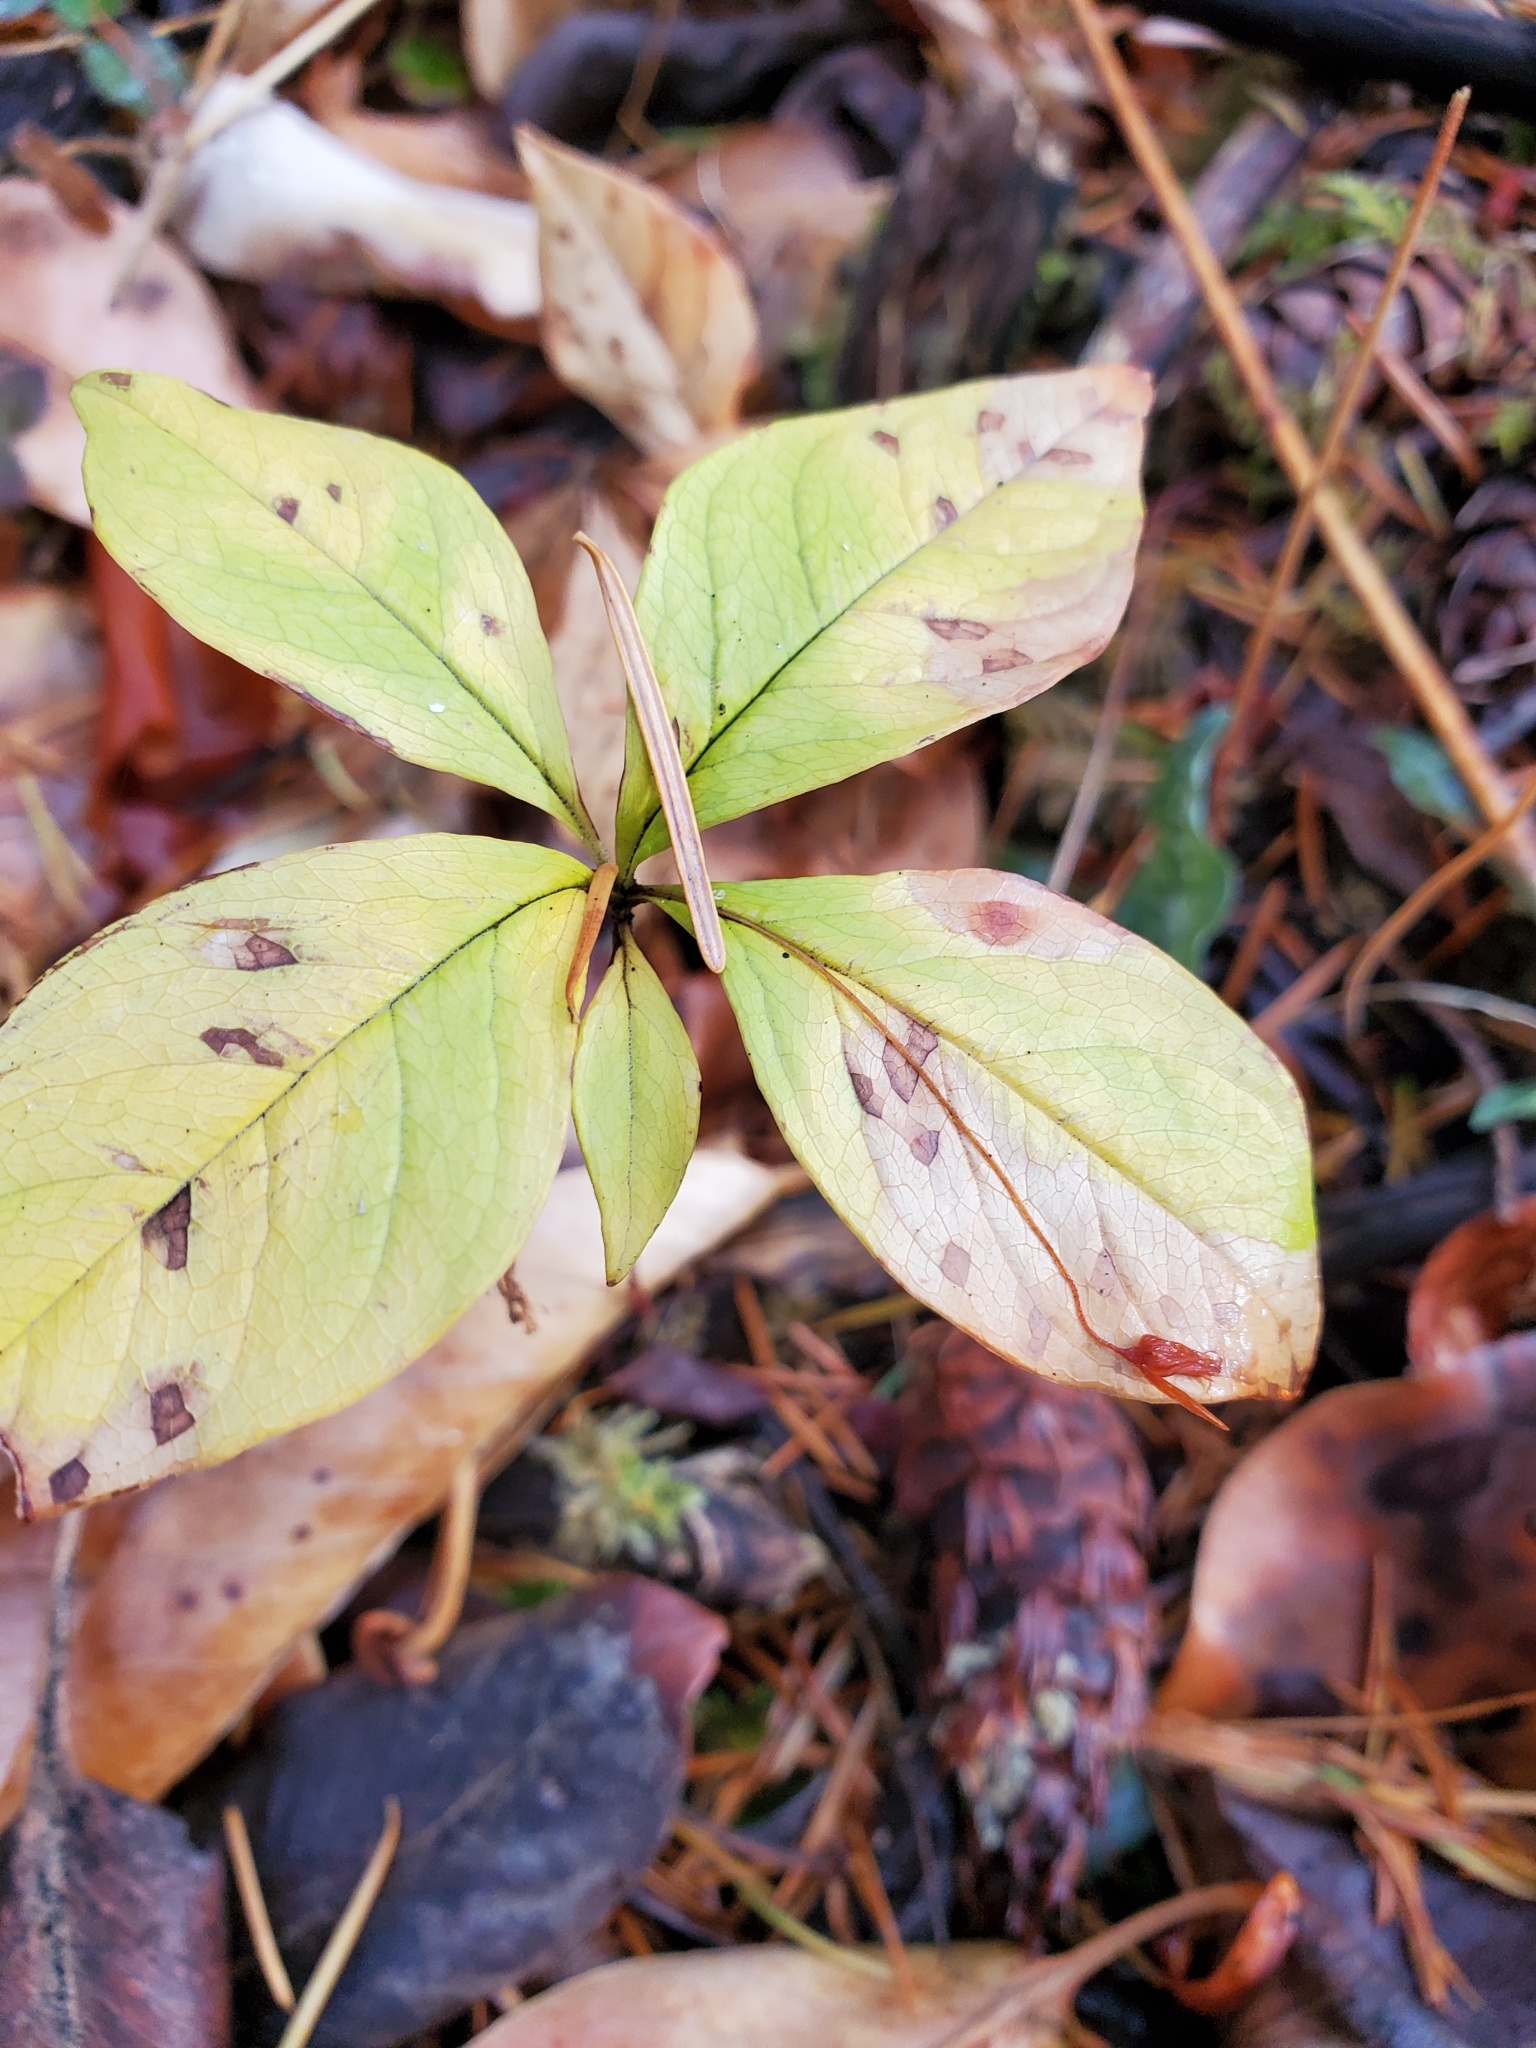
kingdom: Plantae
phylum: Tracheophyta
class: Magnoliopsida
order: Ericales
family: Primulaceae
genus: Lysimachia
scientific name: Lysimachia latifolia
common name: Pacific starflower
